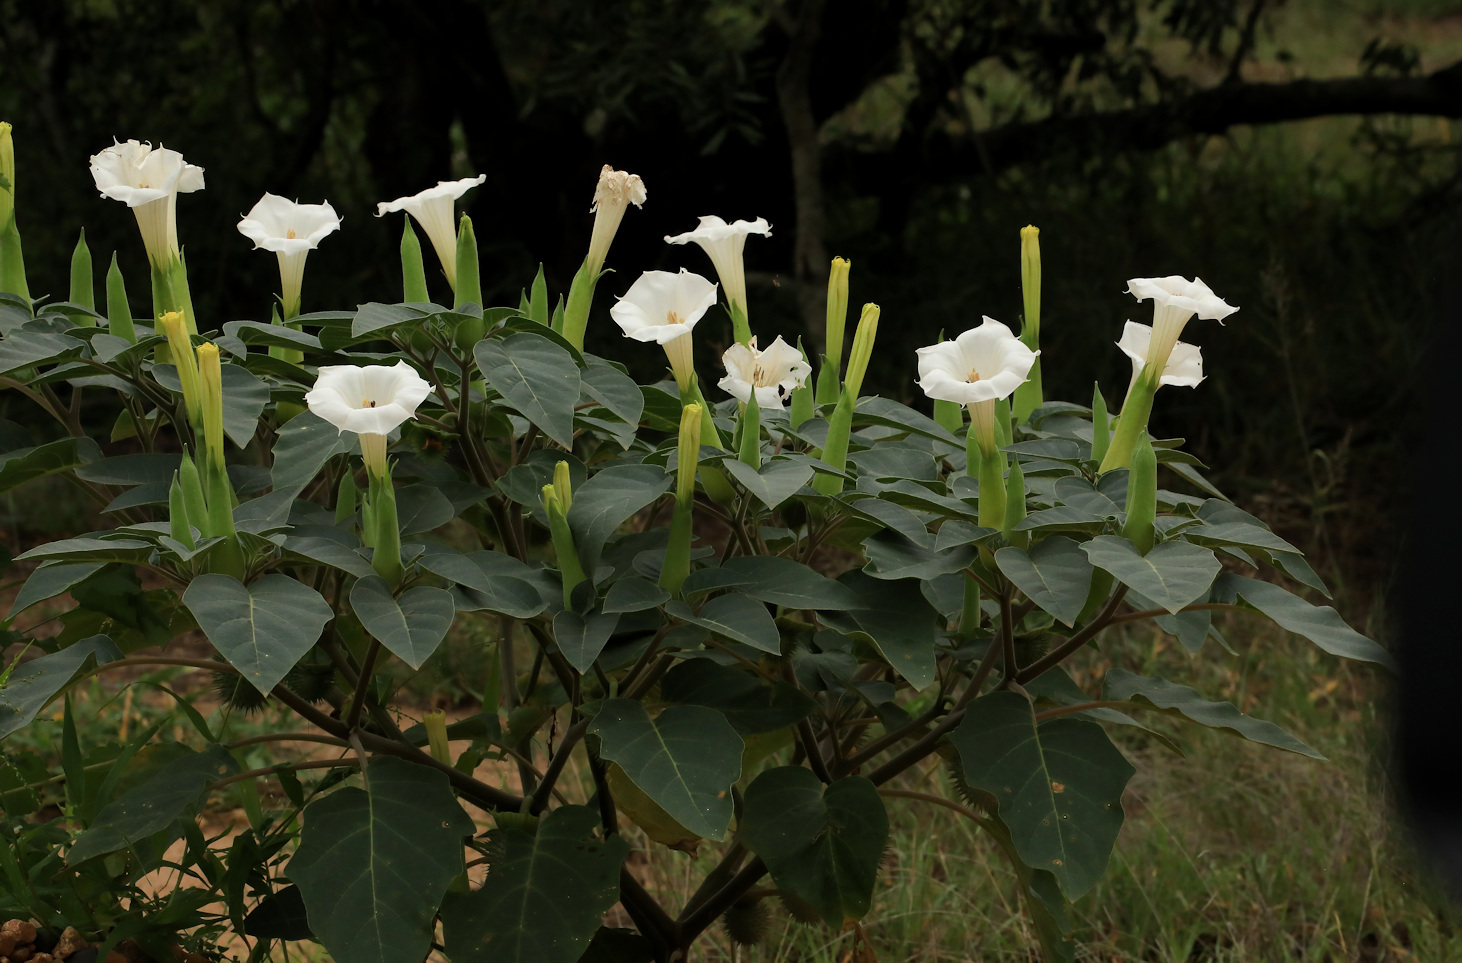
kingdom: Plantae
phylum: Tracheophyta
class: Magnoliopsida
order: Solanales
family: Solanaceae
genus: Datura
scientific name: Datura innoxia
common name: Downy thorn-apple
